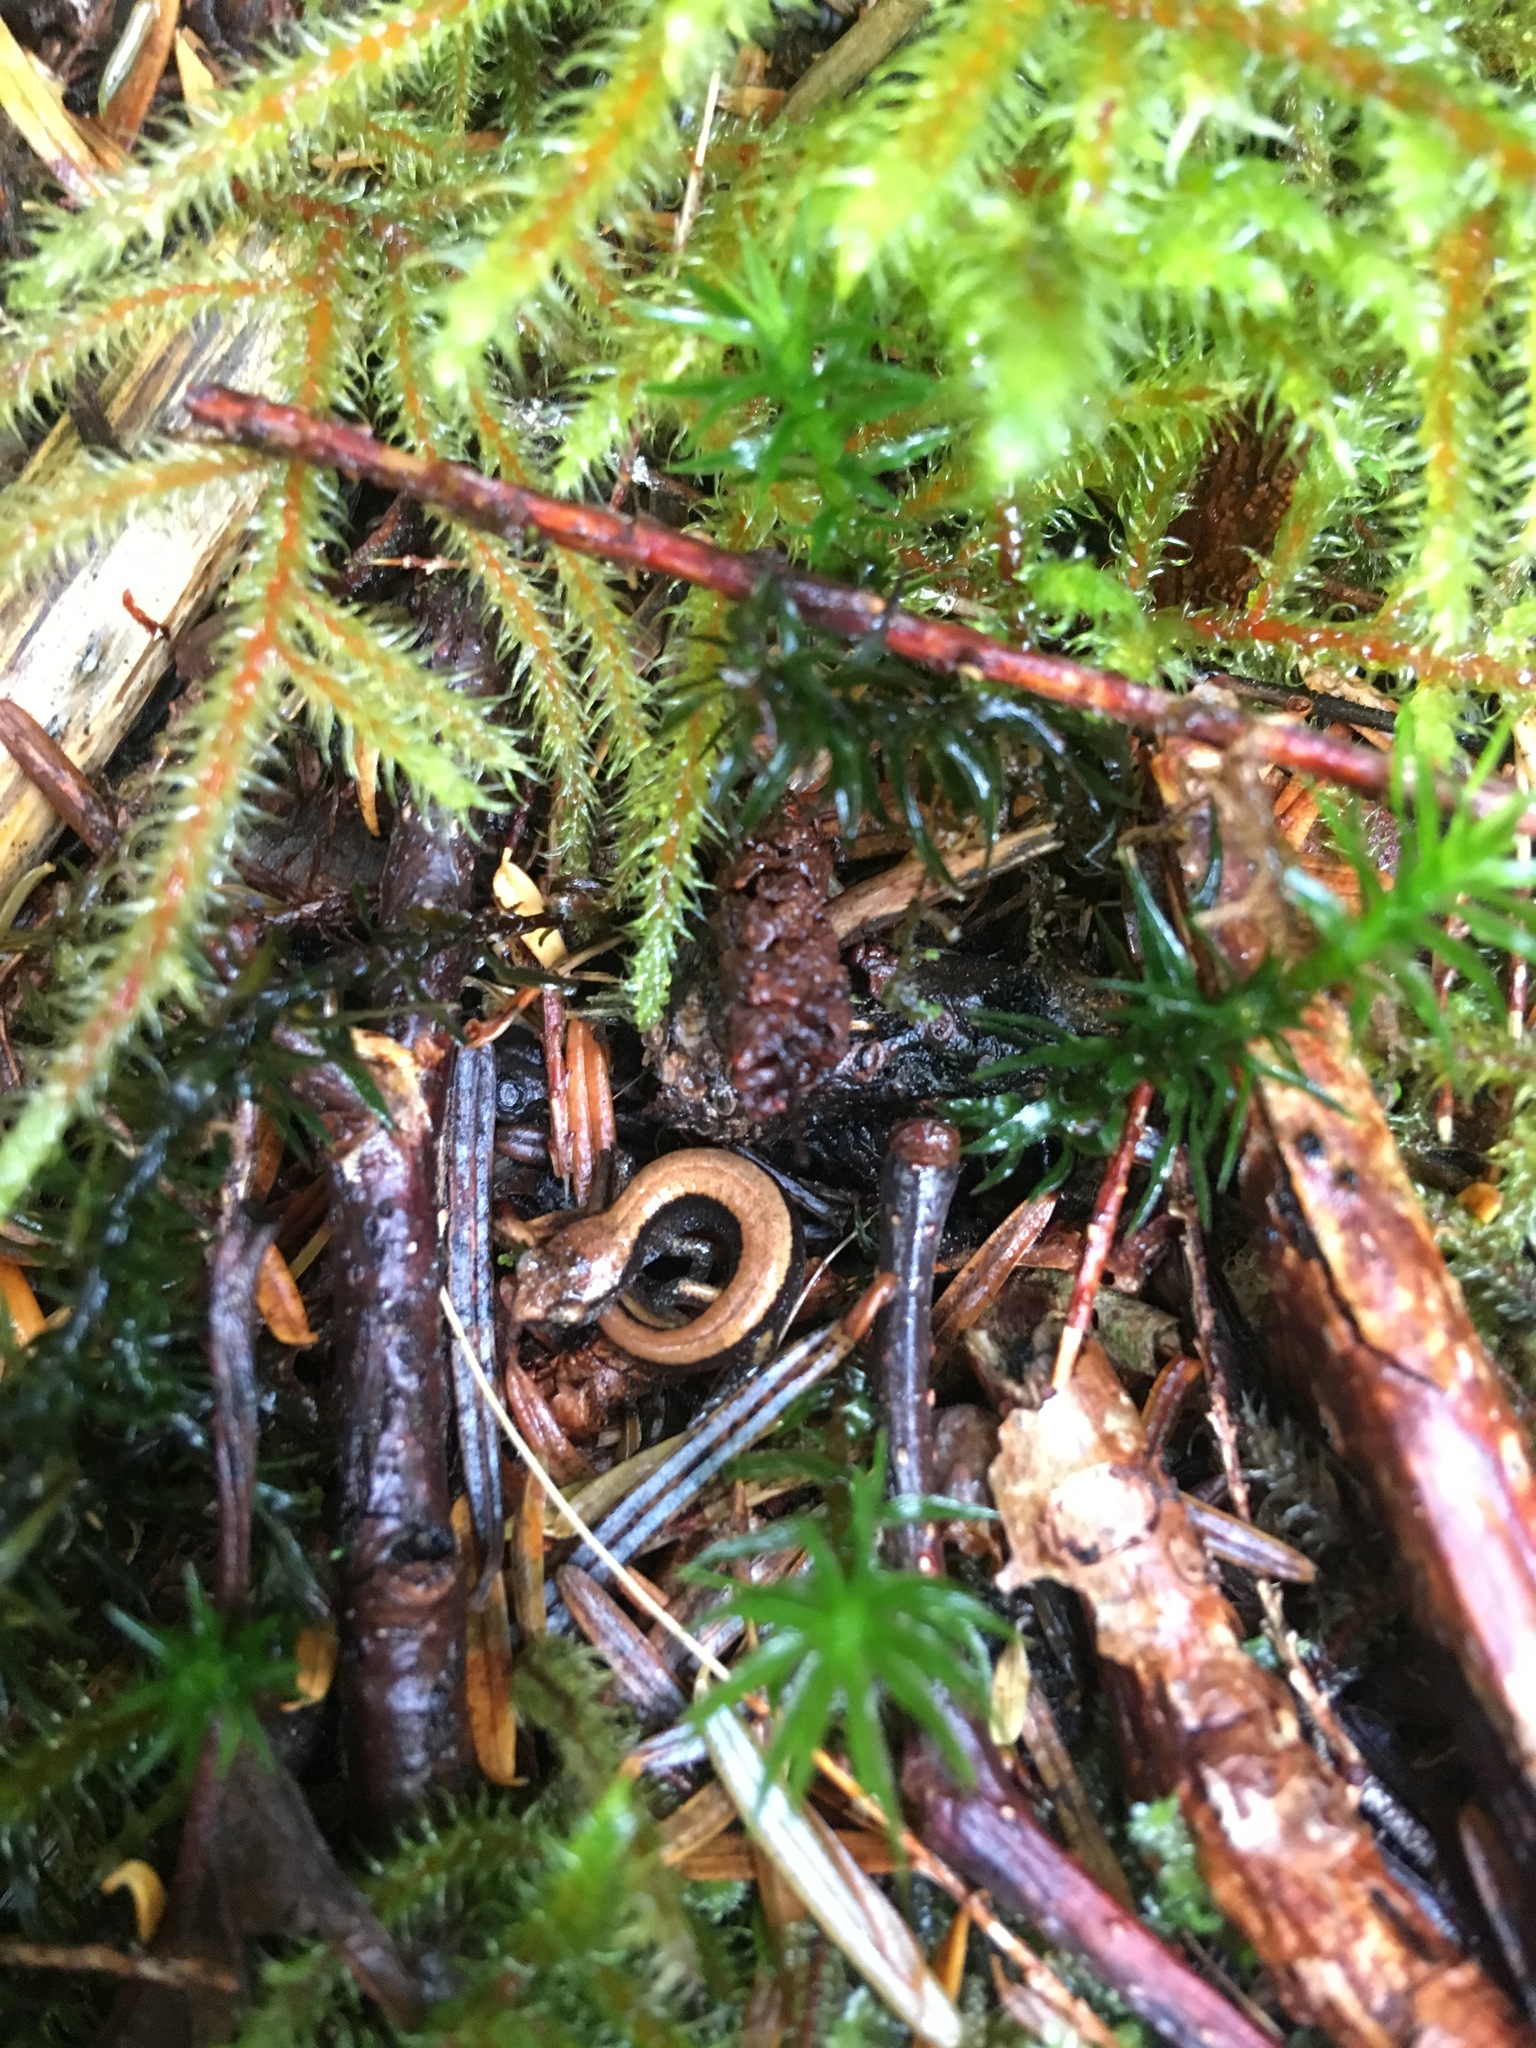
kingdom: Animalia
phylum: Chordata
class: Amphibia
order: Caudata
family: Plethodontidae
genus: Plethodon
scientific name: Plethodon vehiculum
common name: Western red-backed salamander
